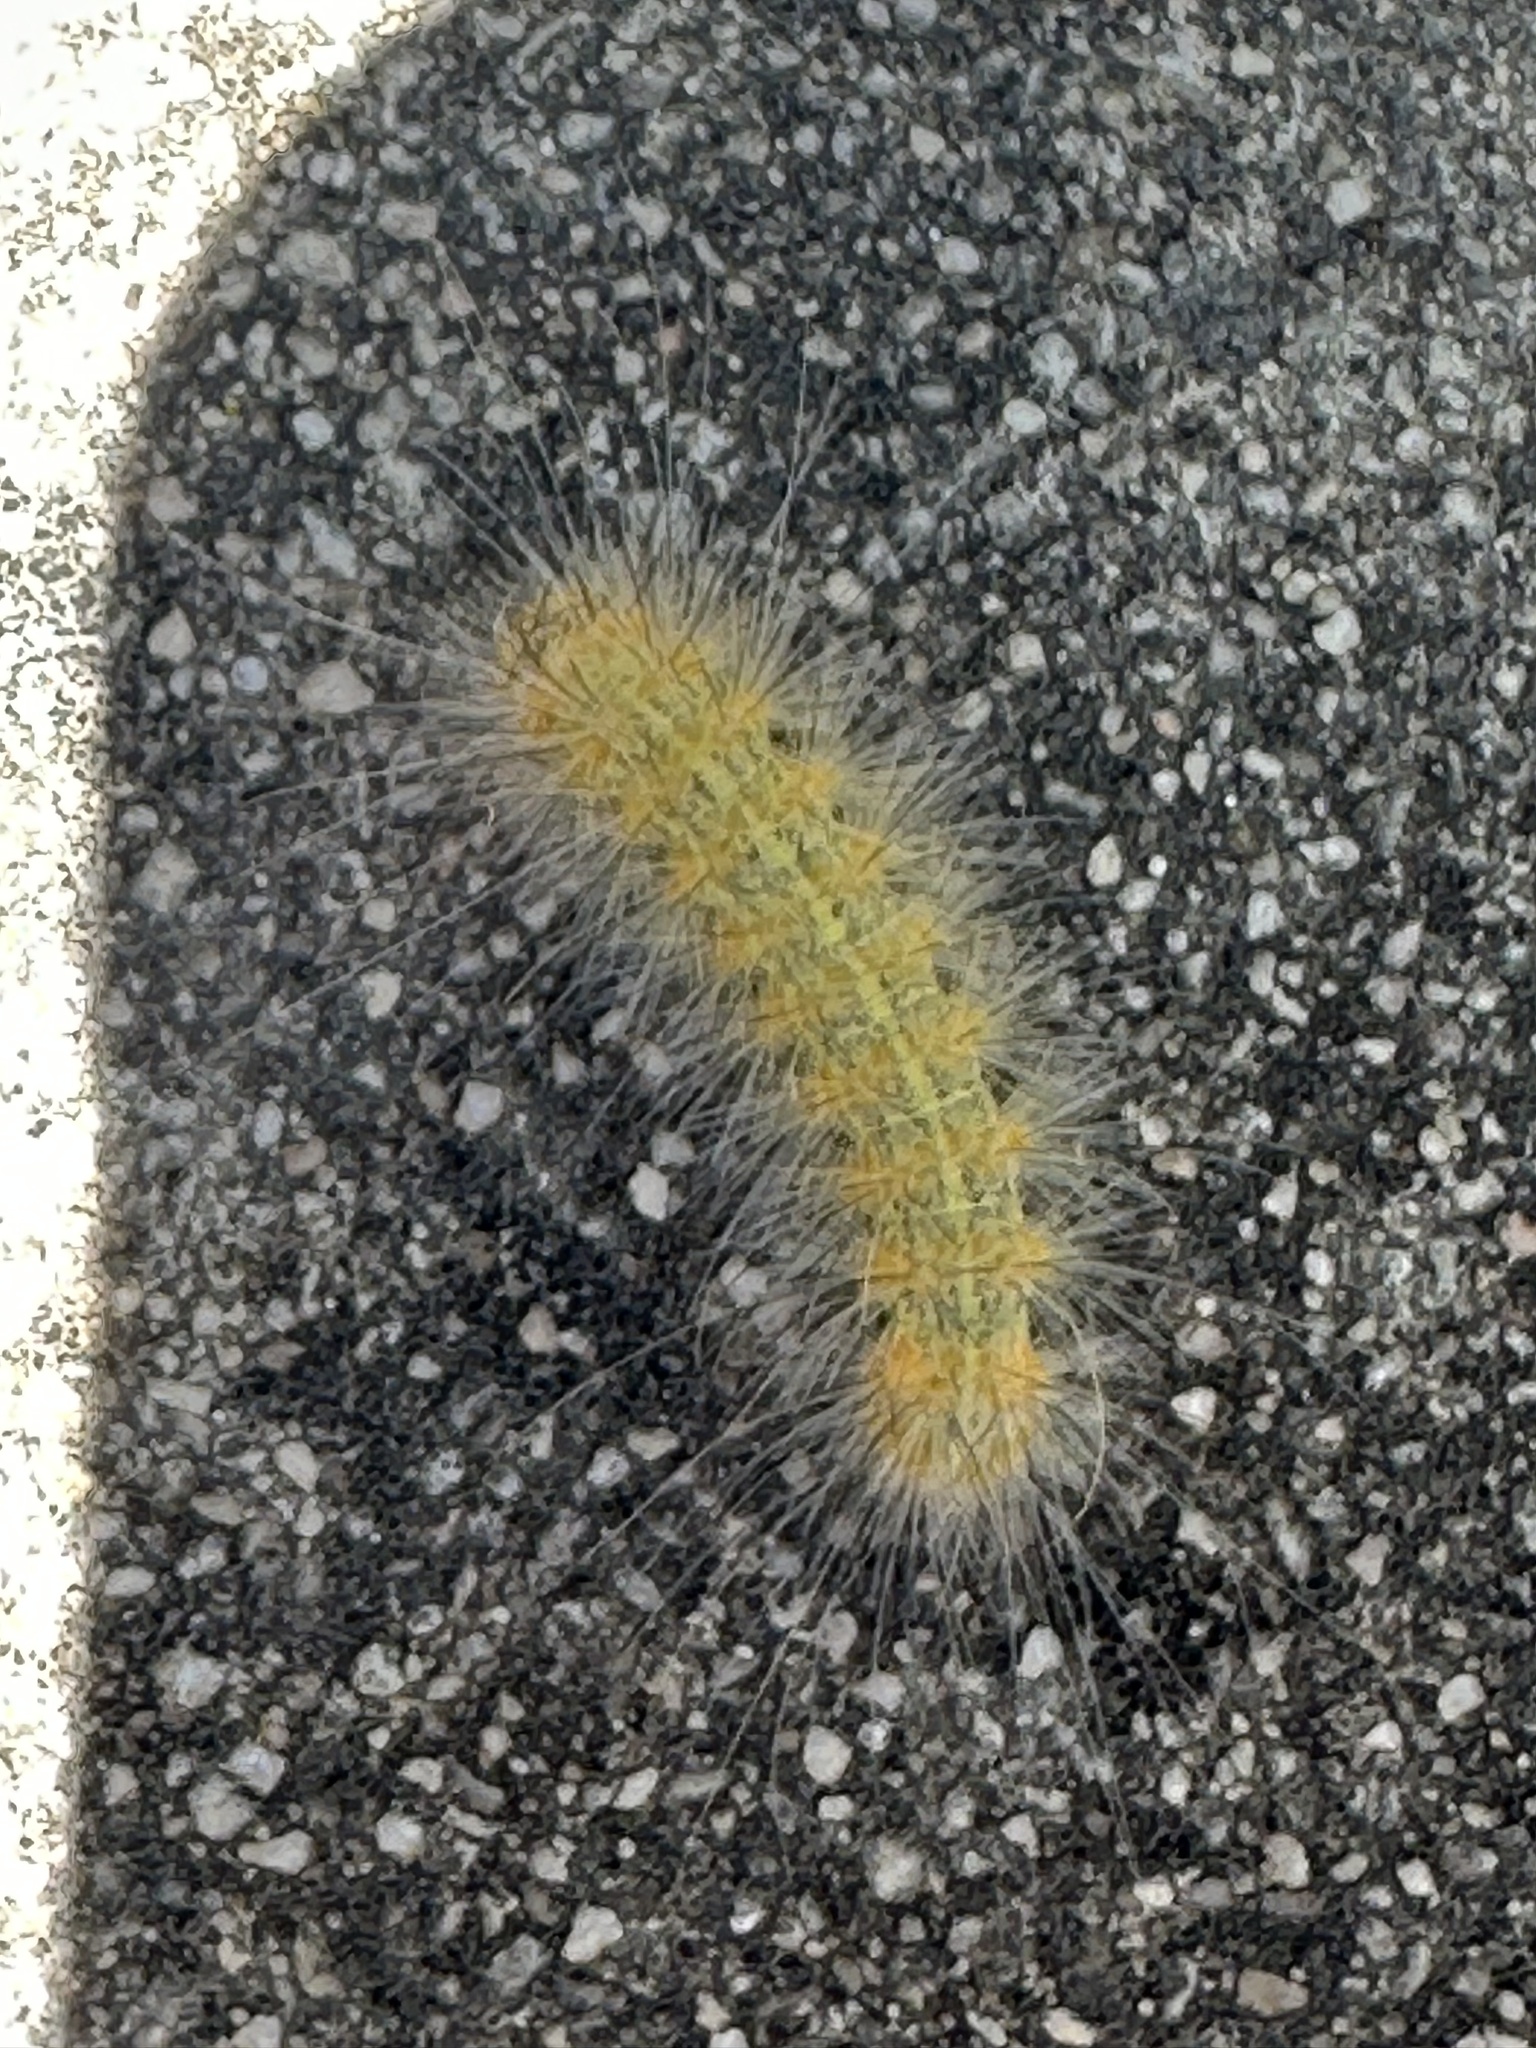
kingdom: Animalia
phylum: Arthropoda
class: Insecta
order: Lepidoptera
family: Erebidae
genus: Estigmene
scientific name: Estigmene acrea
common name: Salt marsh moth
